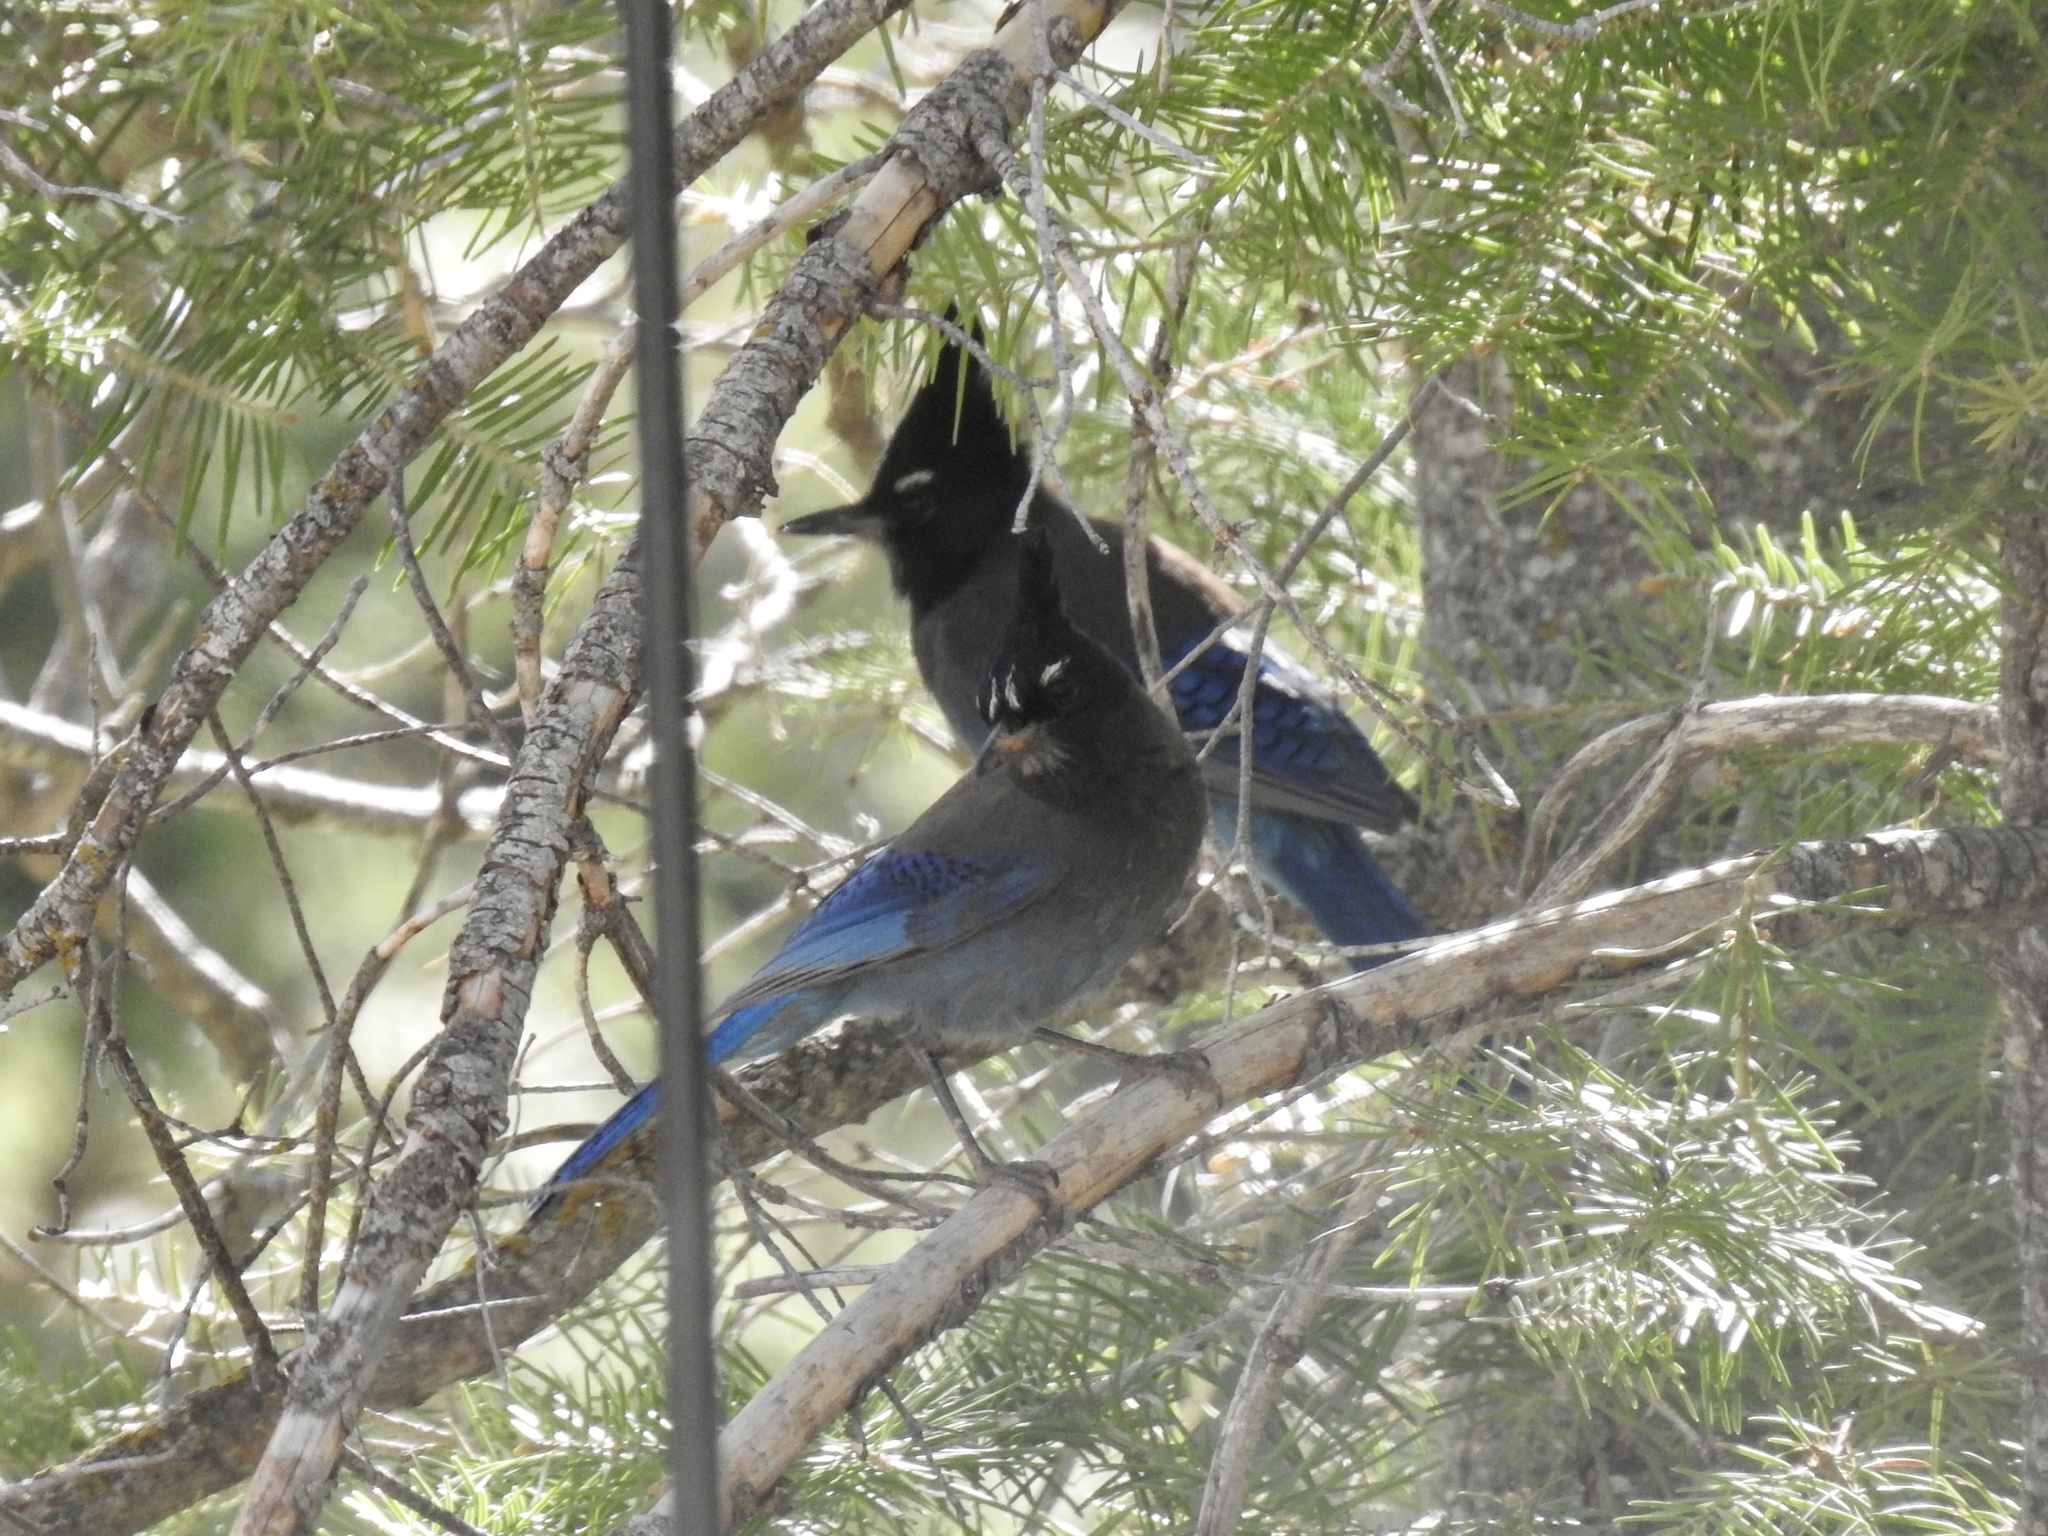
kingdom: Animalia
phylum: Chordata
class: Aves
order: Passeriformes
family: Corvidae
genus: Cyanocitta
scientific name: Cyanocitta stelleri
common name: Steller's jay
